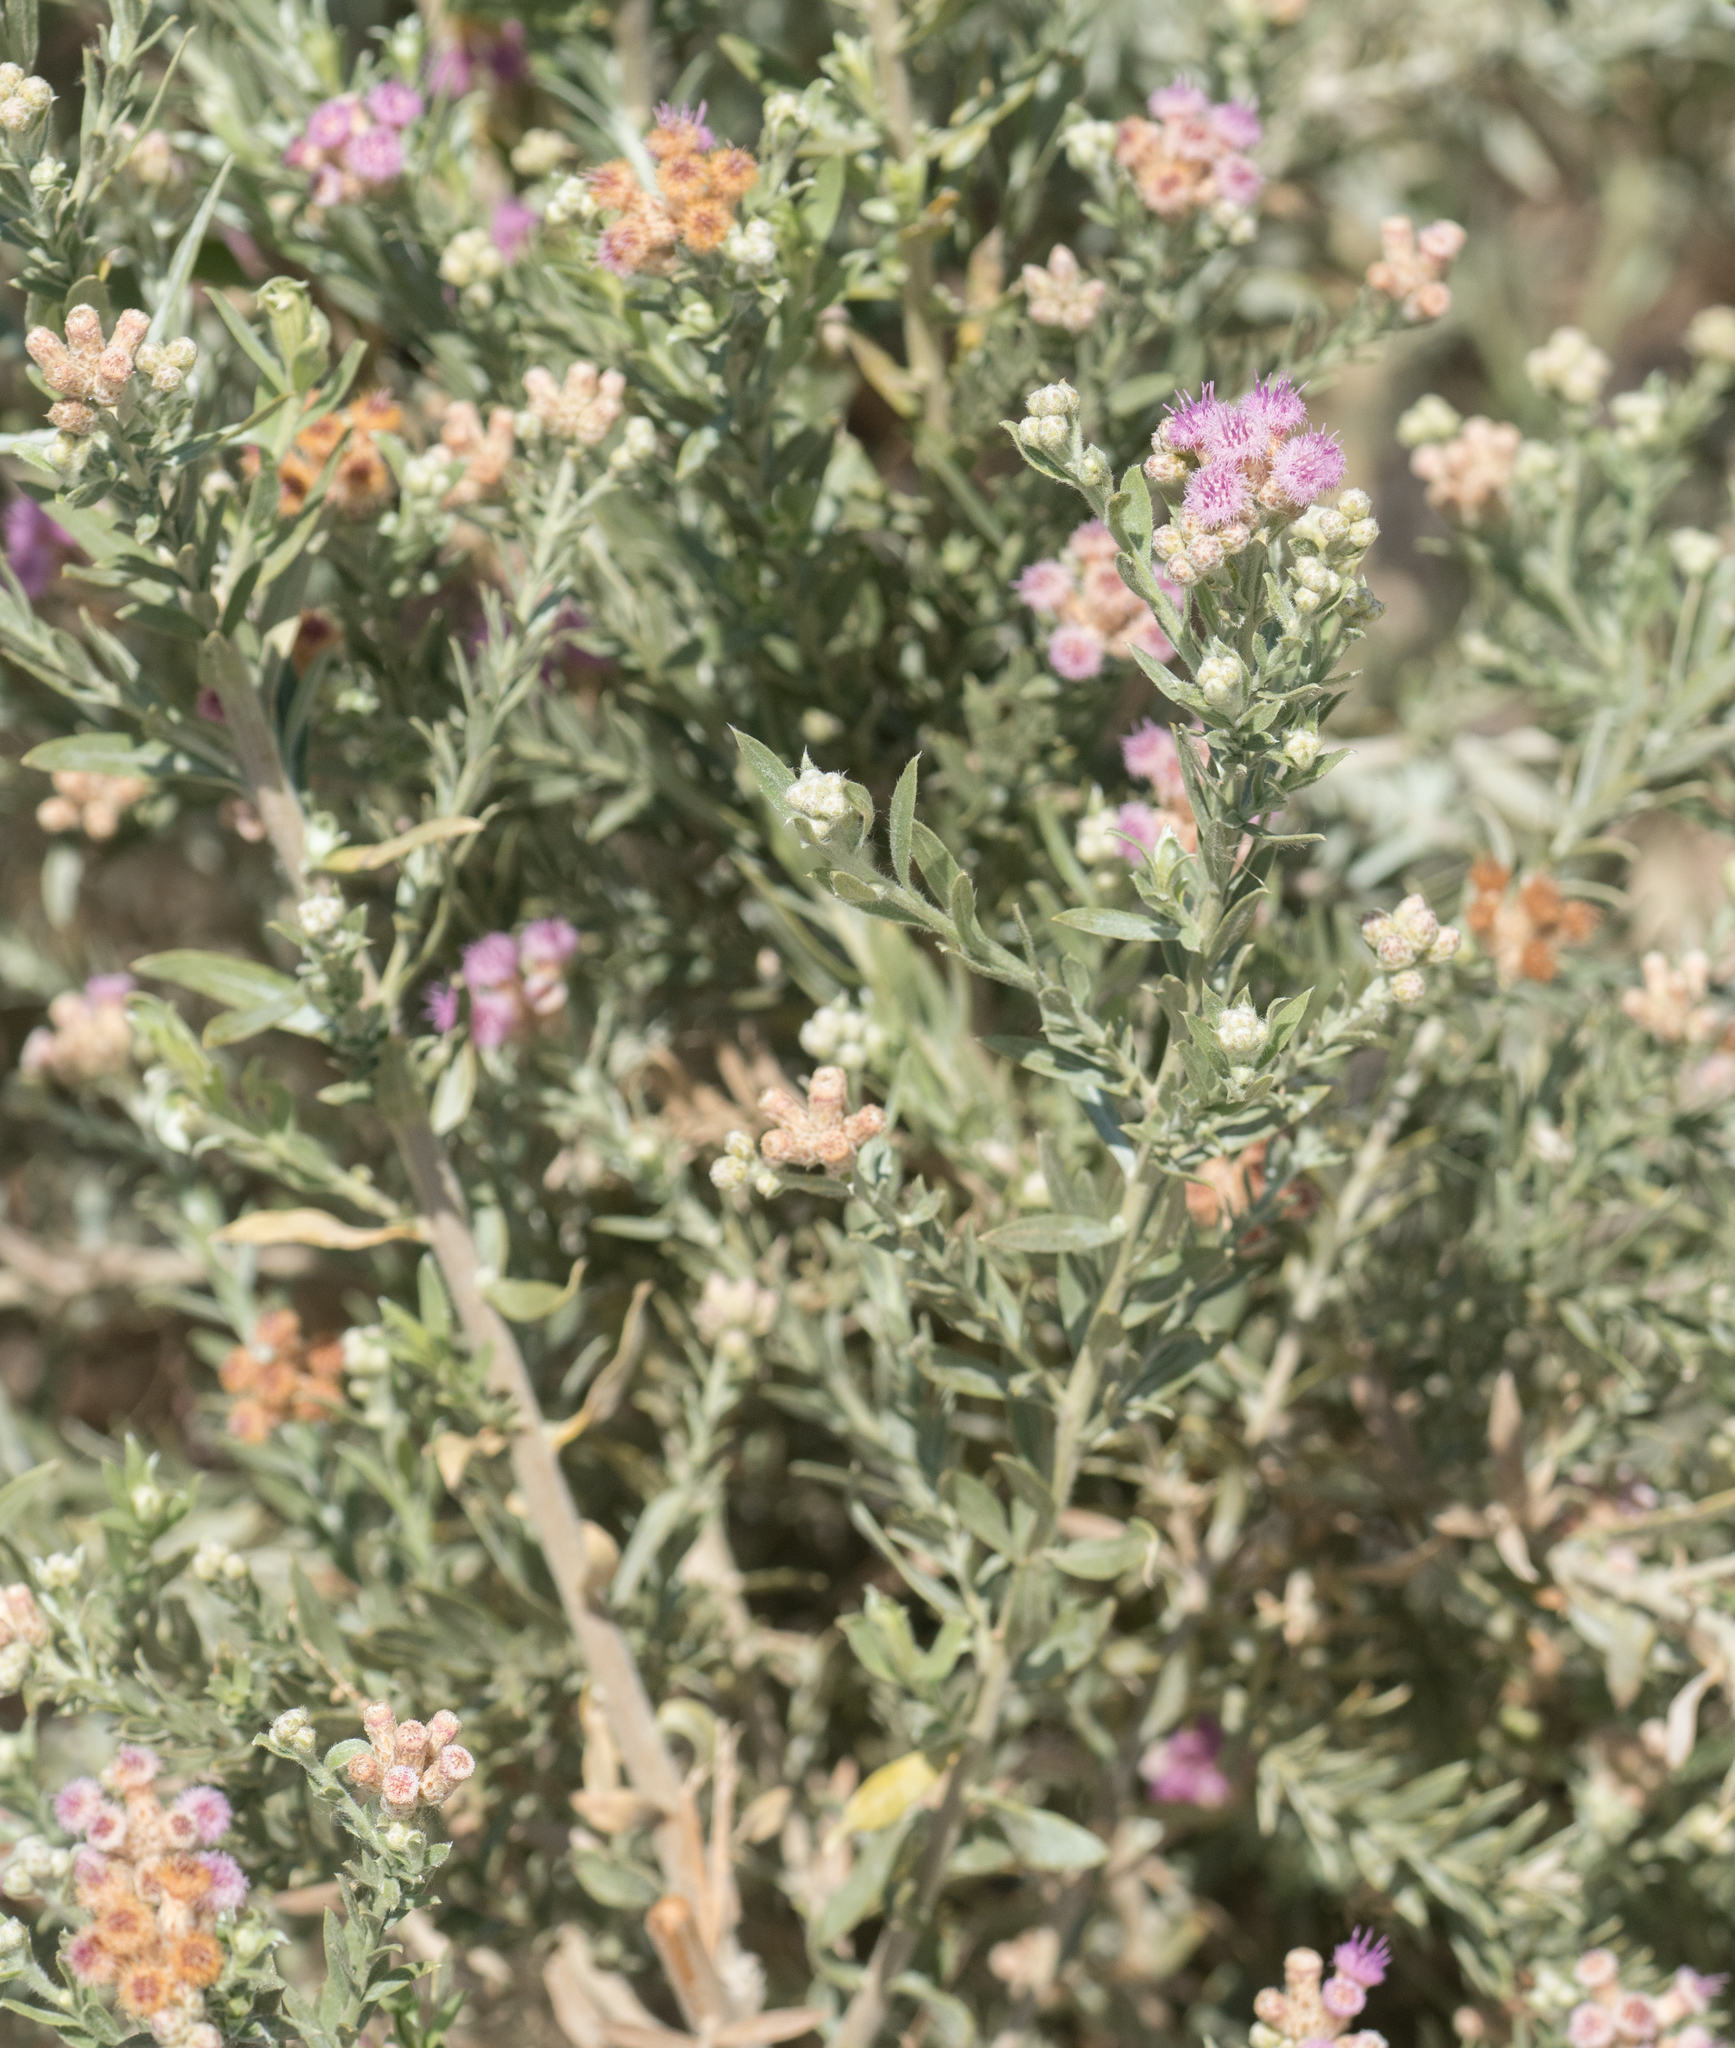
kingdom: Plantae
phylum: Tracheophyta
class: Magnoliopsida
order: Asterales
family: Asteraceae
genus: Pluchea
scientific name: Pluchea sericea
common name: Arrow-weed
